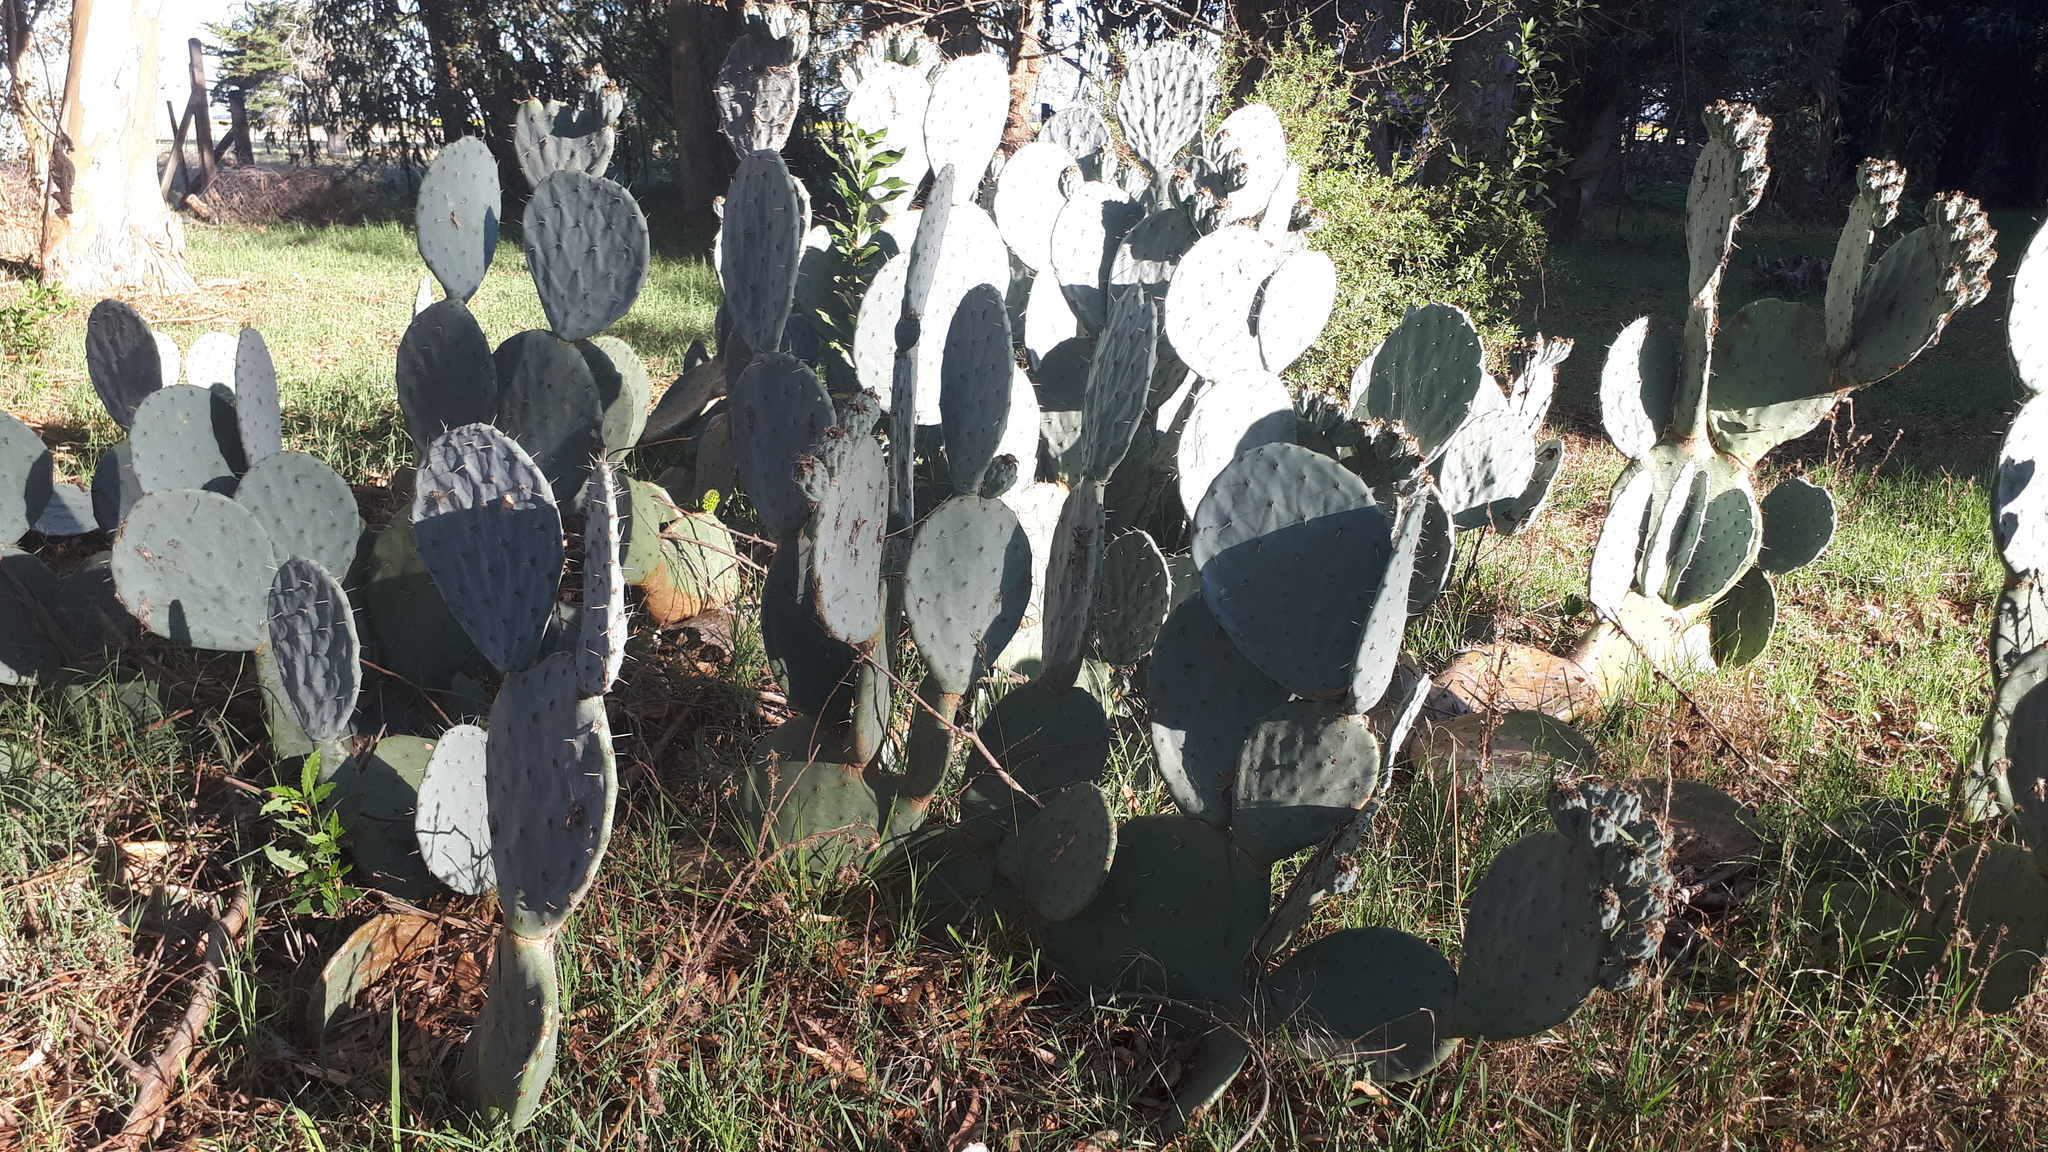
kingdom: Plantae
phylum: Tracheophyta
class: Magnoliopsida
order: Caryophyllales
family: Cactaceae
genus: Opuntia
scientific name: Opuntia robusta
